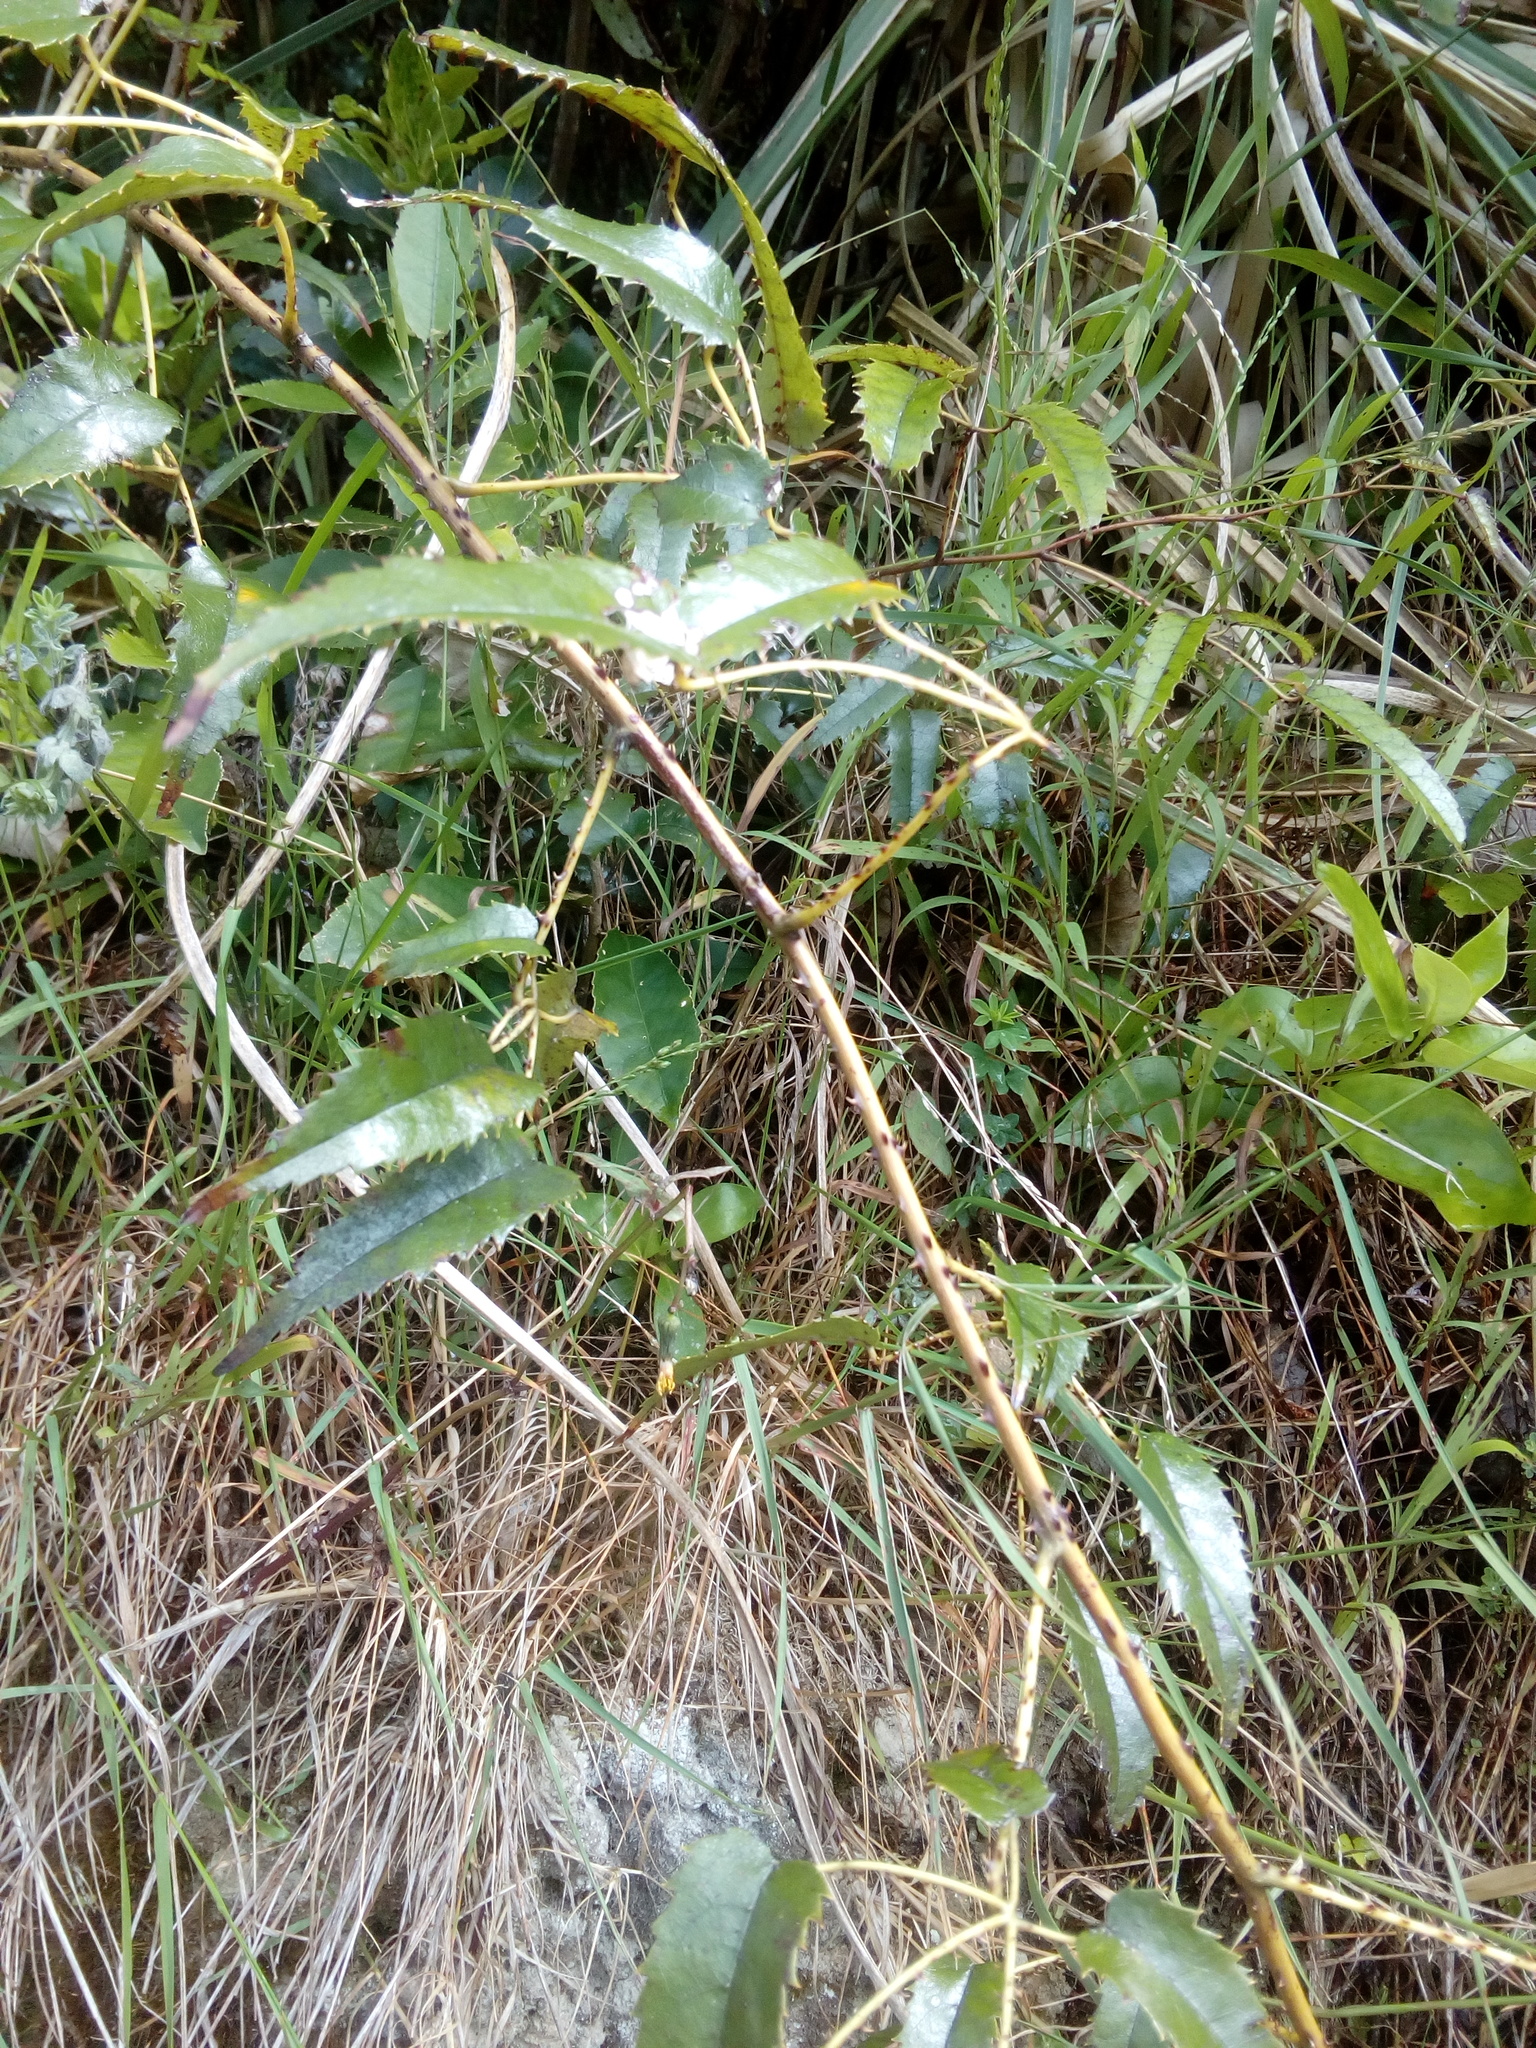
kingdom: Plantae
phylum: Tracheophyta
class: Magnoliopsida
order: Rosales
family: Rosaceae
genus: Rubus
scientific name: Rubus cissoides
